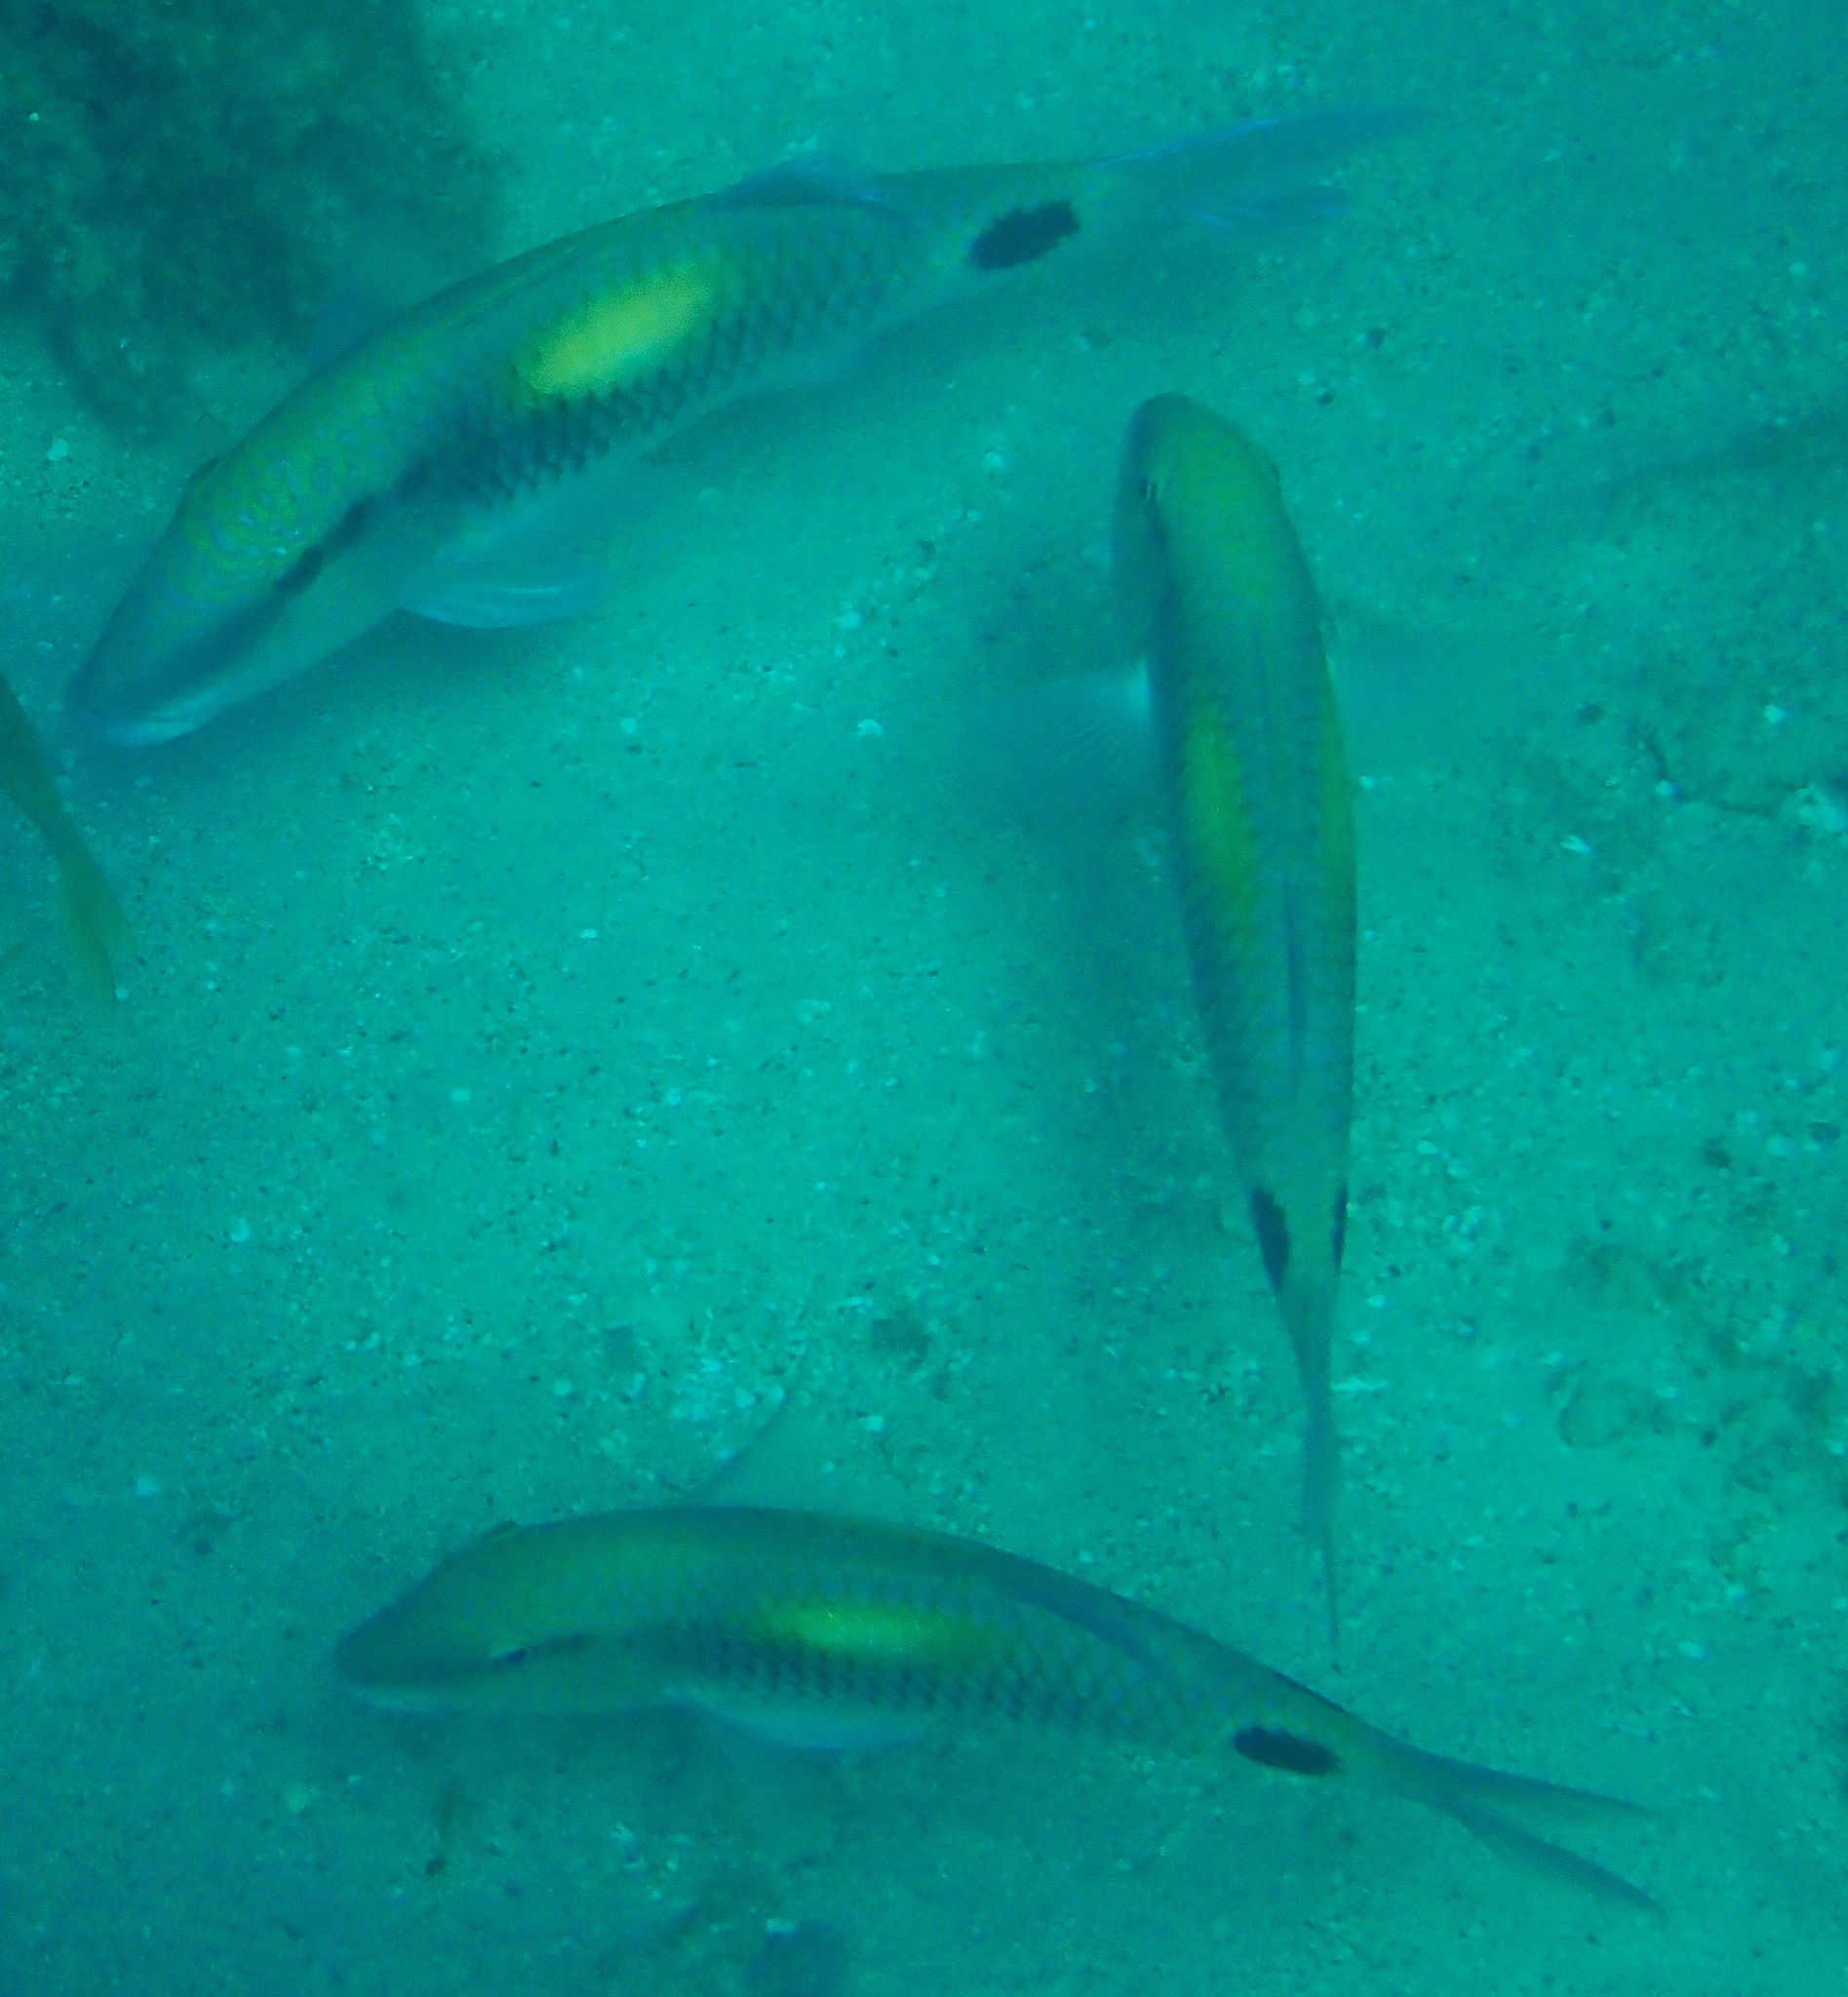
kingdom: Animalia
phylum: Chordata
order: Perciformes
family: Mullidae
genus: Parupeneus
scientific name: Parupeneus indicus
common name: Indian goatfish
